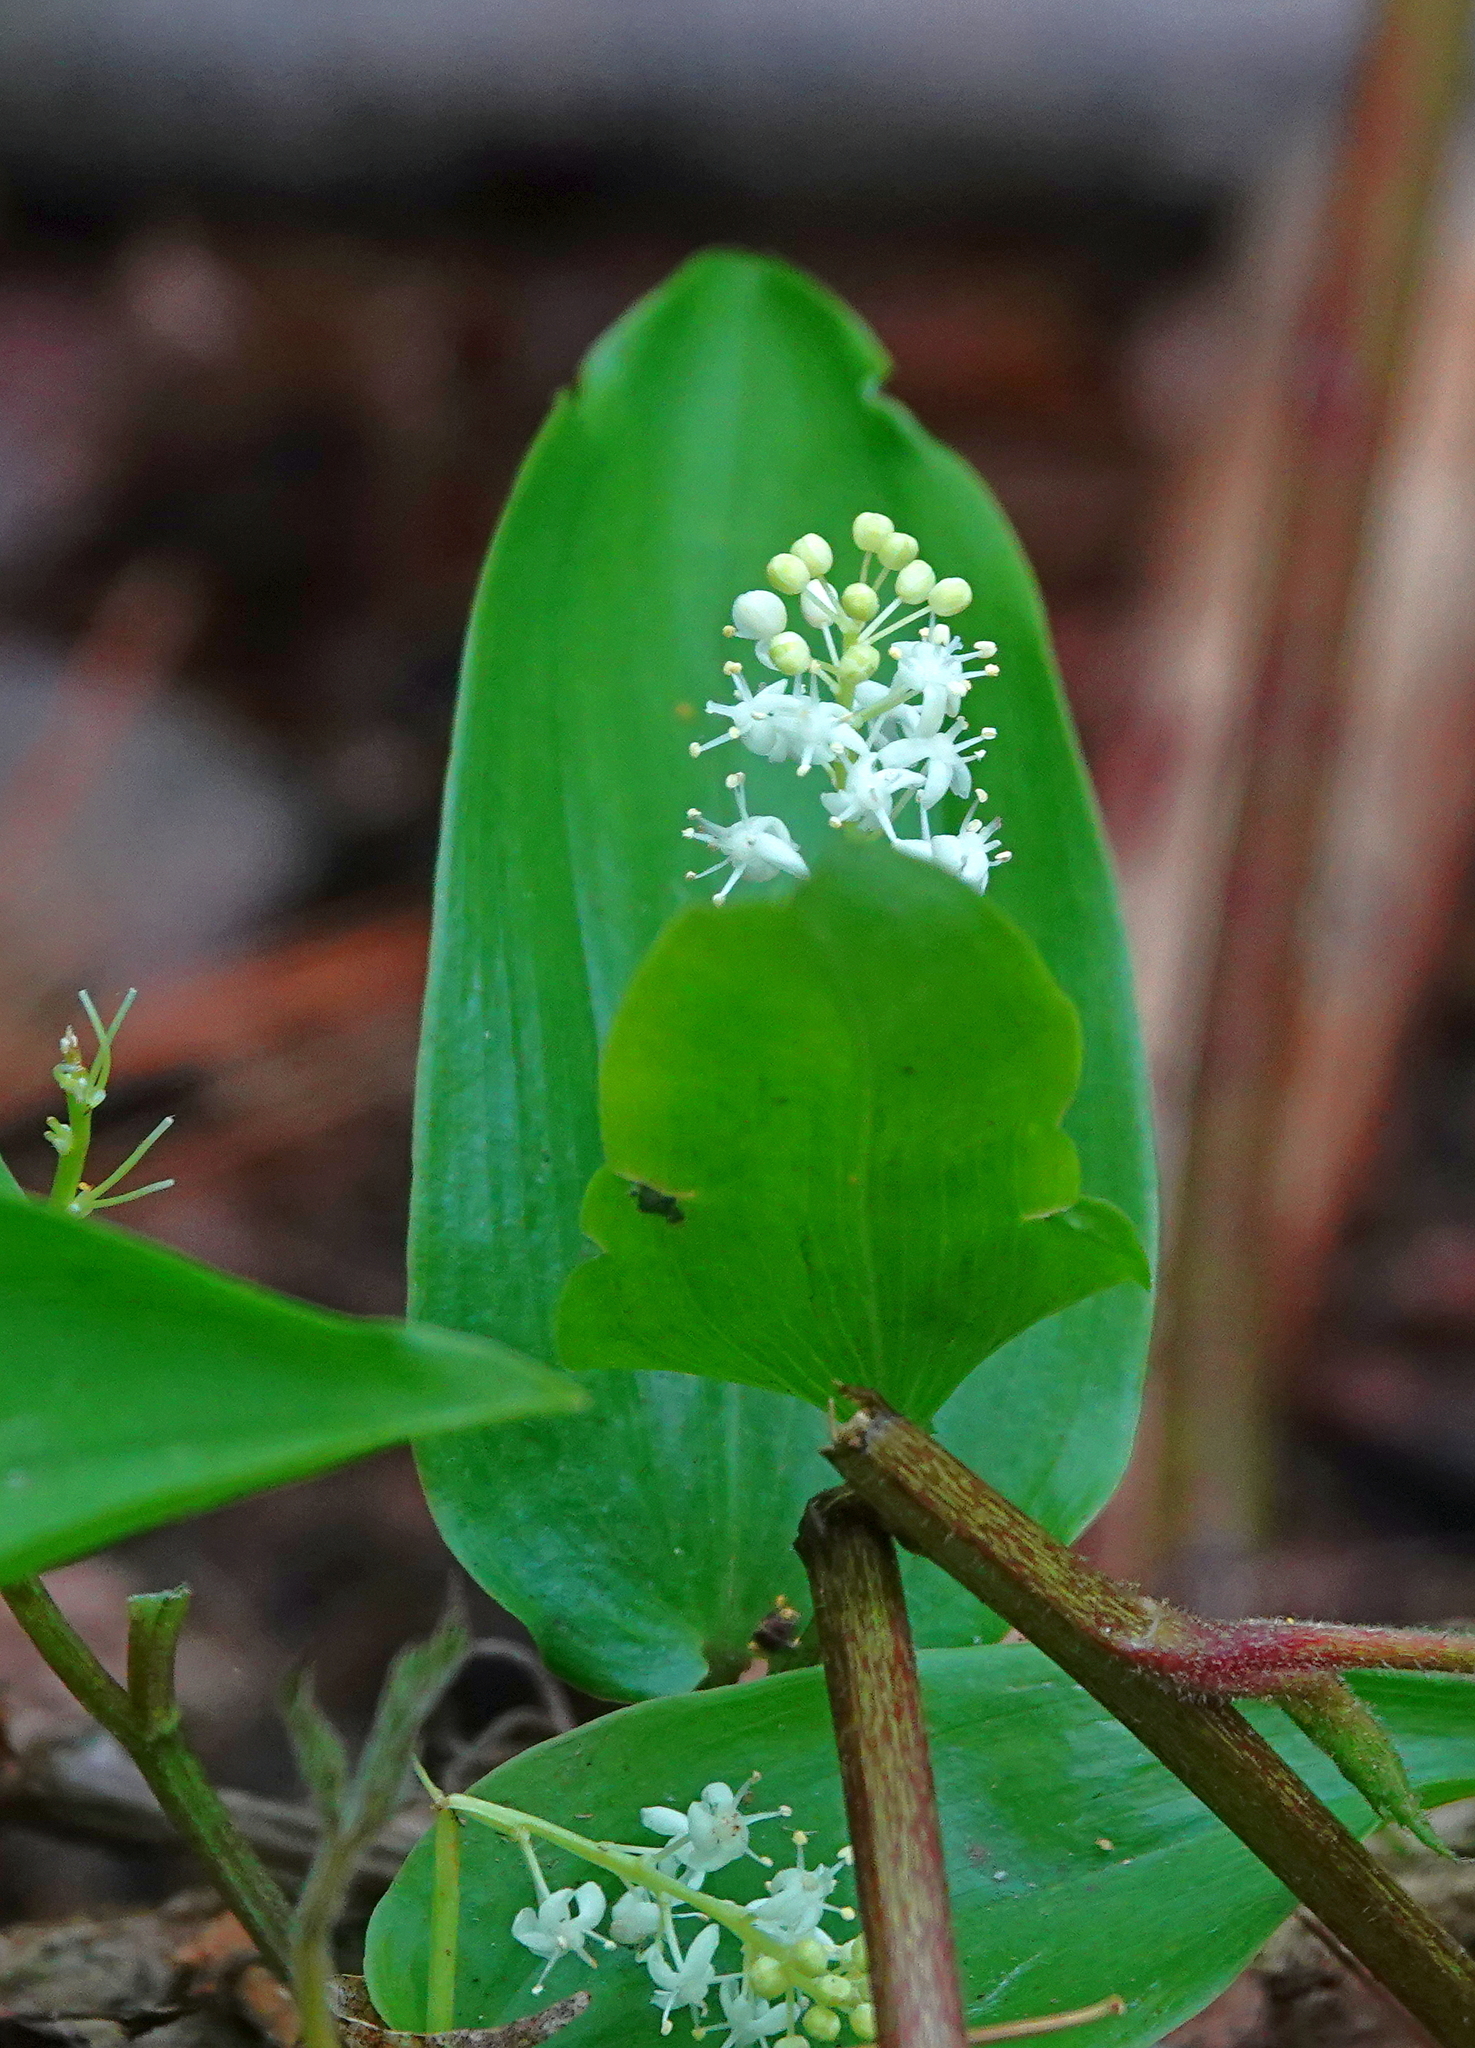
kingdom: Plantae
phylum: Tracheophyta
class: Liliopsida
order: Asparagales
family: Asparagaceae
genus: Maianthemum
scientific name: Maianthemum canadense
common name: False lily-of-the-valley
